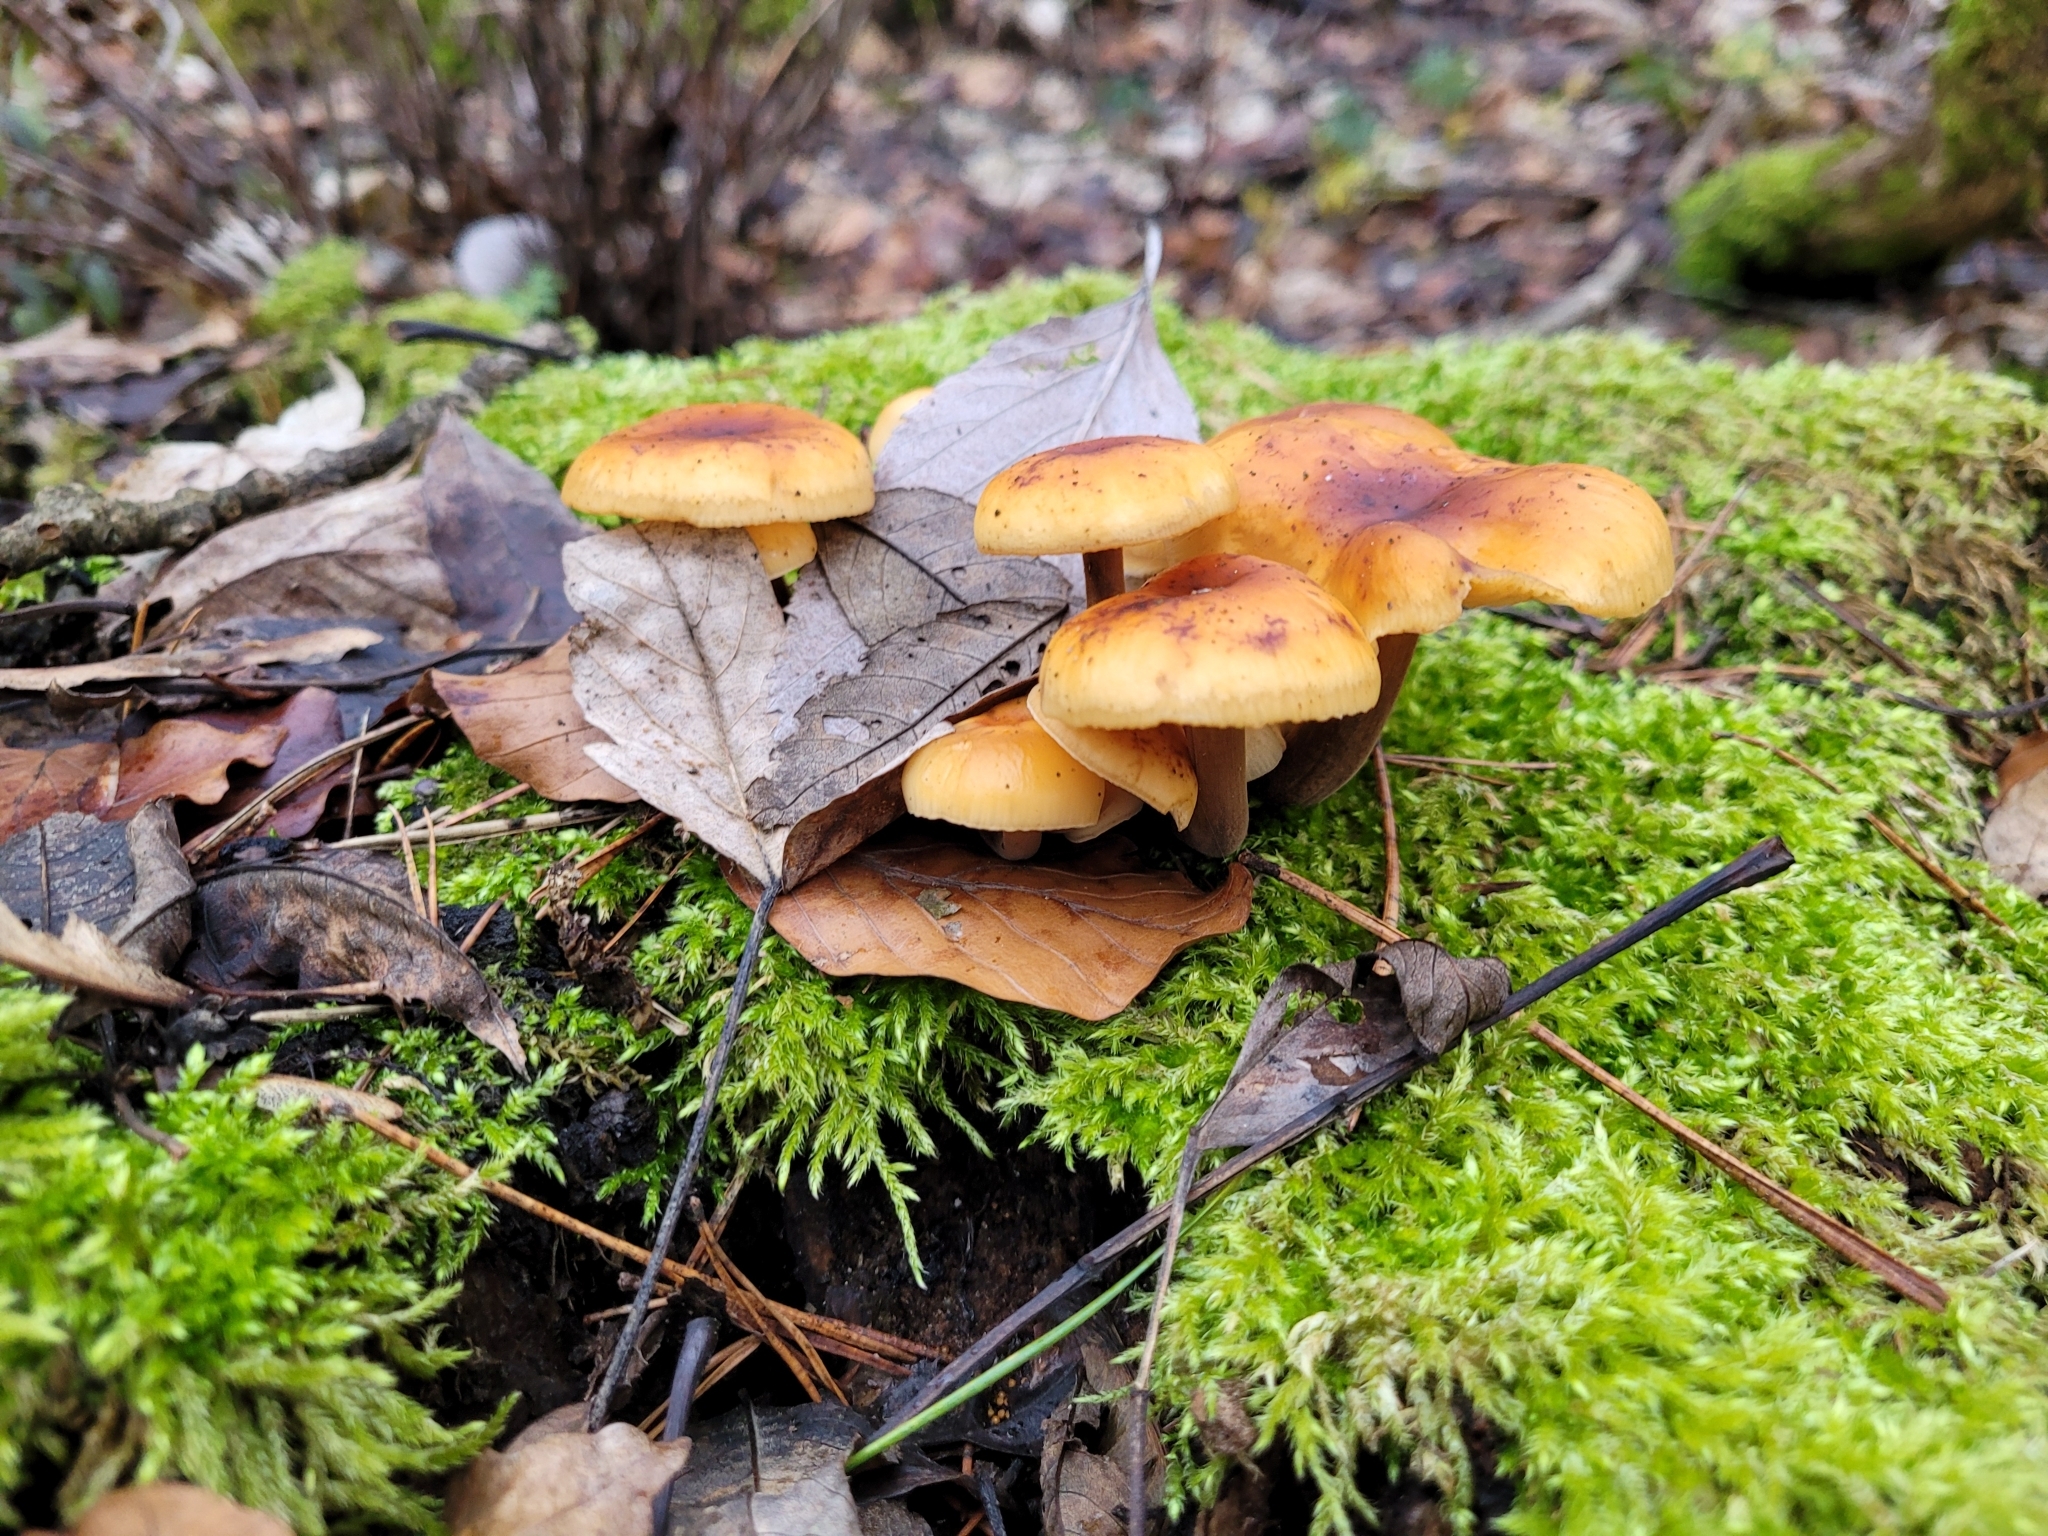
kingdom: Fungi
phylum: Basidiomycota
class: Agaricomycetes
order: Agaricales
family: Physalacriaceae
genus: Flammulina
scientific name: Flammulina
